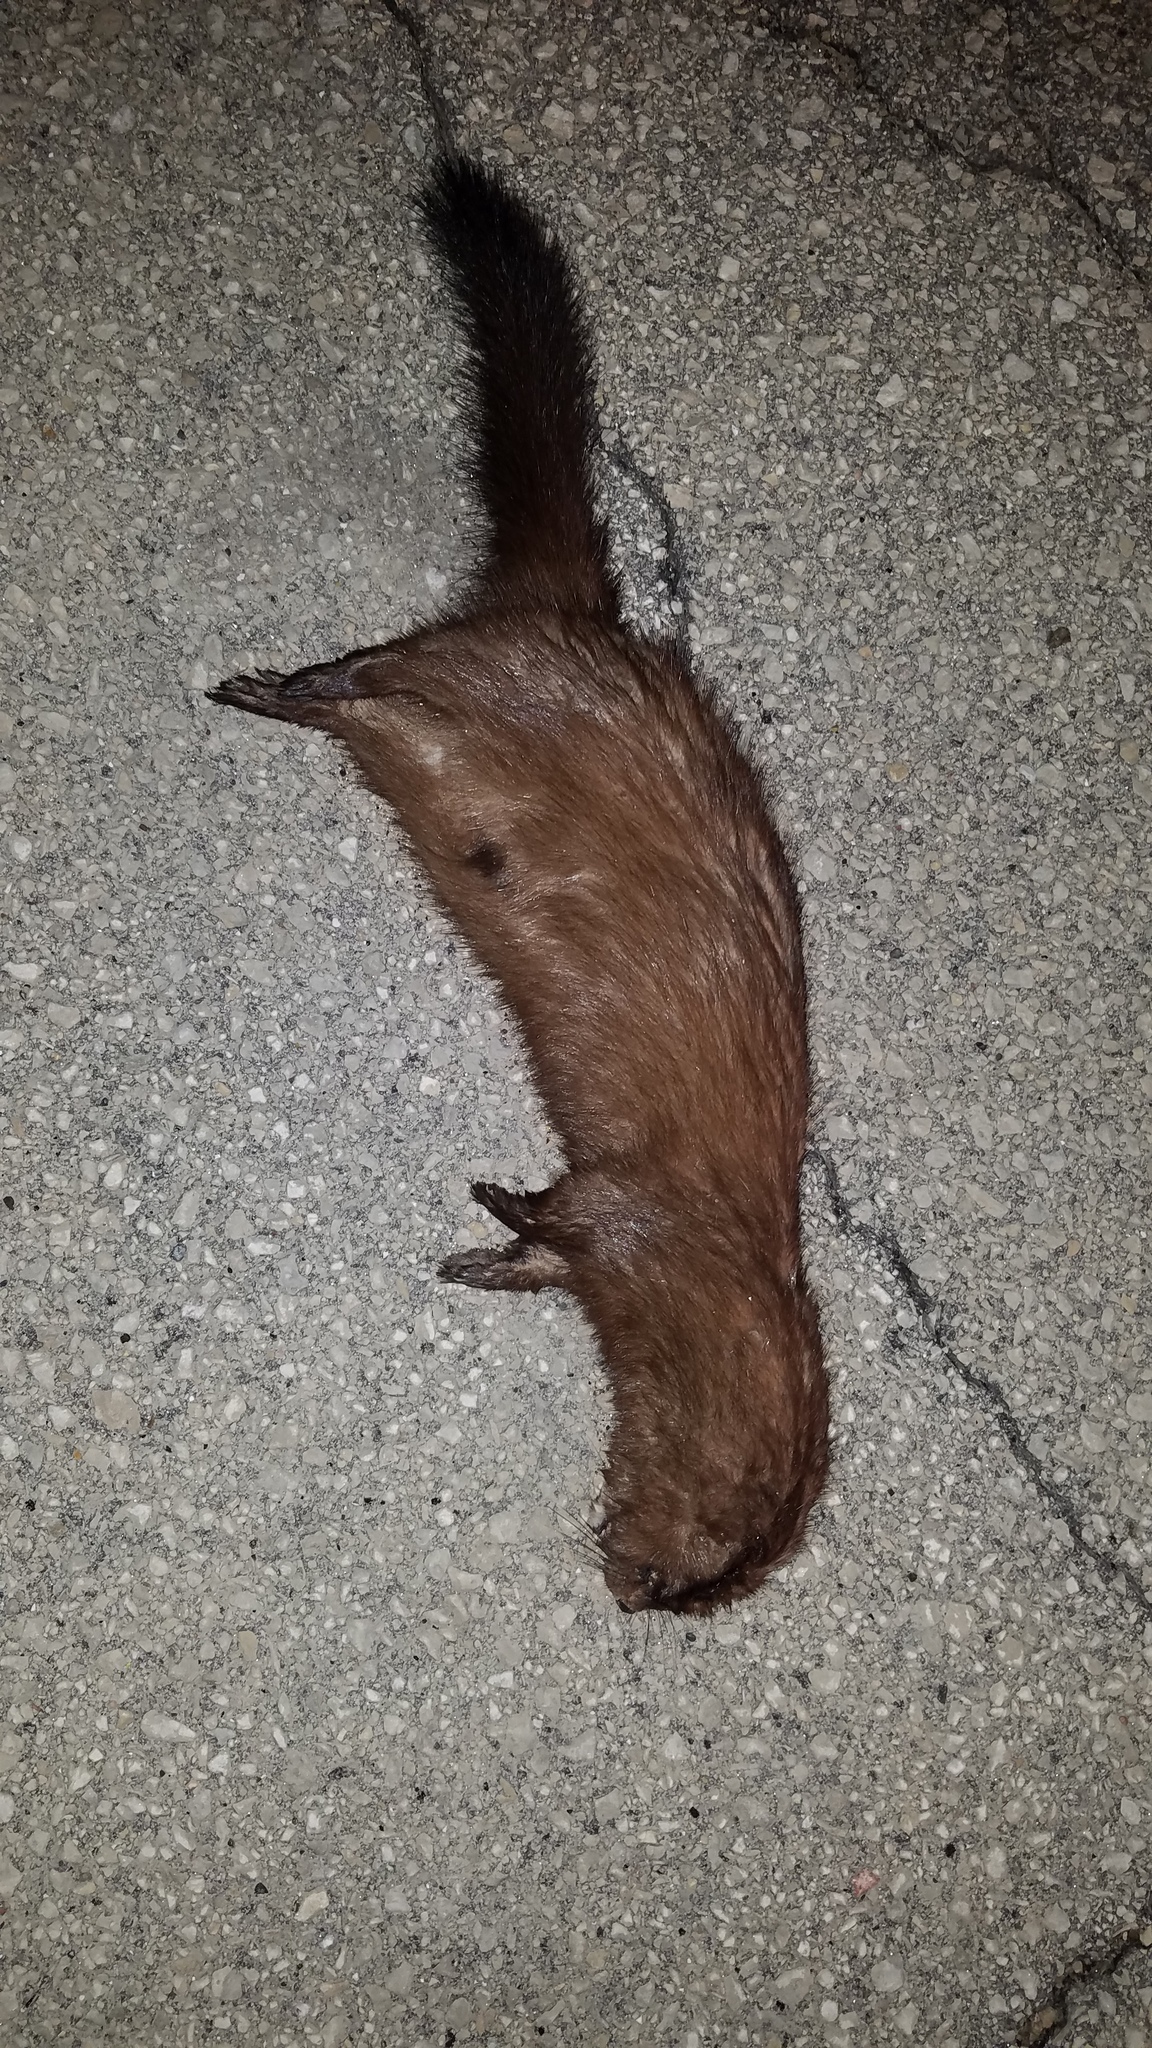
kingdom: Animalia
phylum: Chordata
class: Mammalia
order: Carnivora
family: Mustelidae
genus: Mustela
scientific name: Mustela
